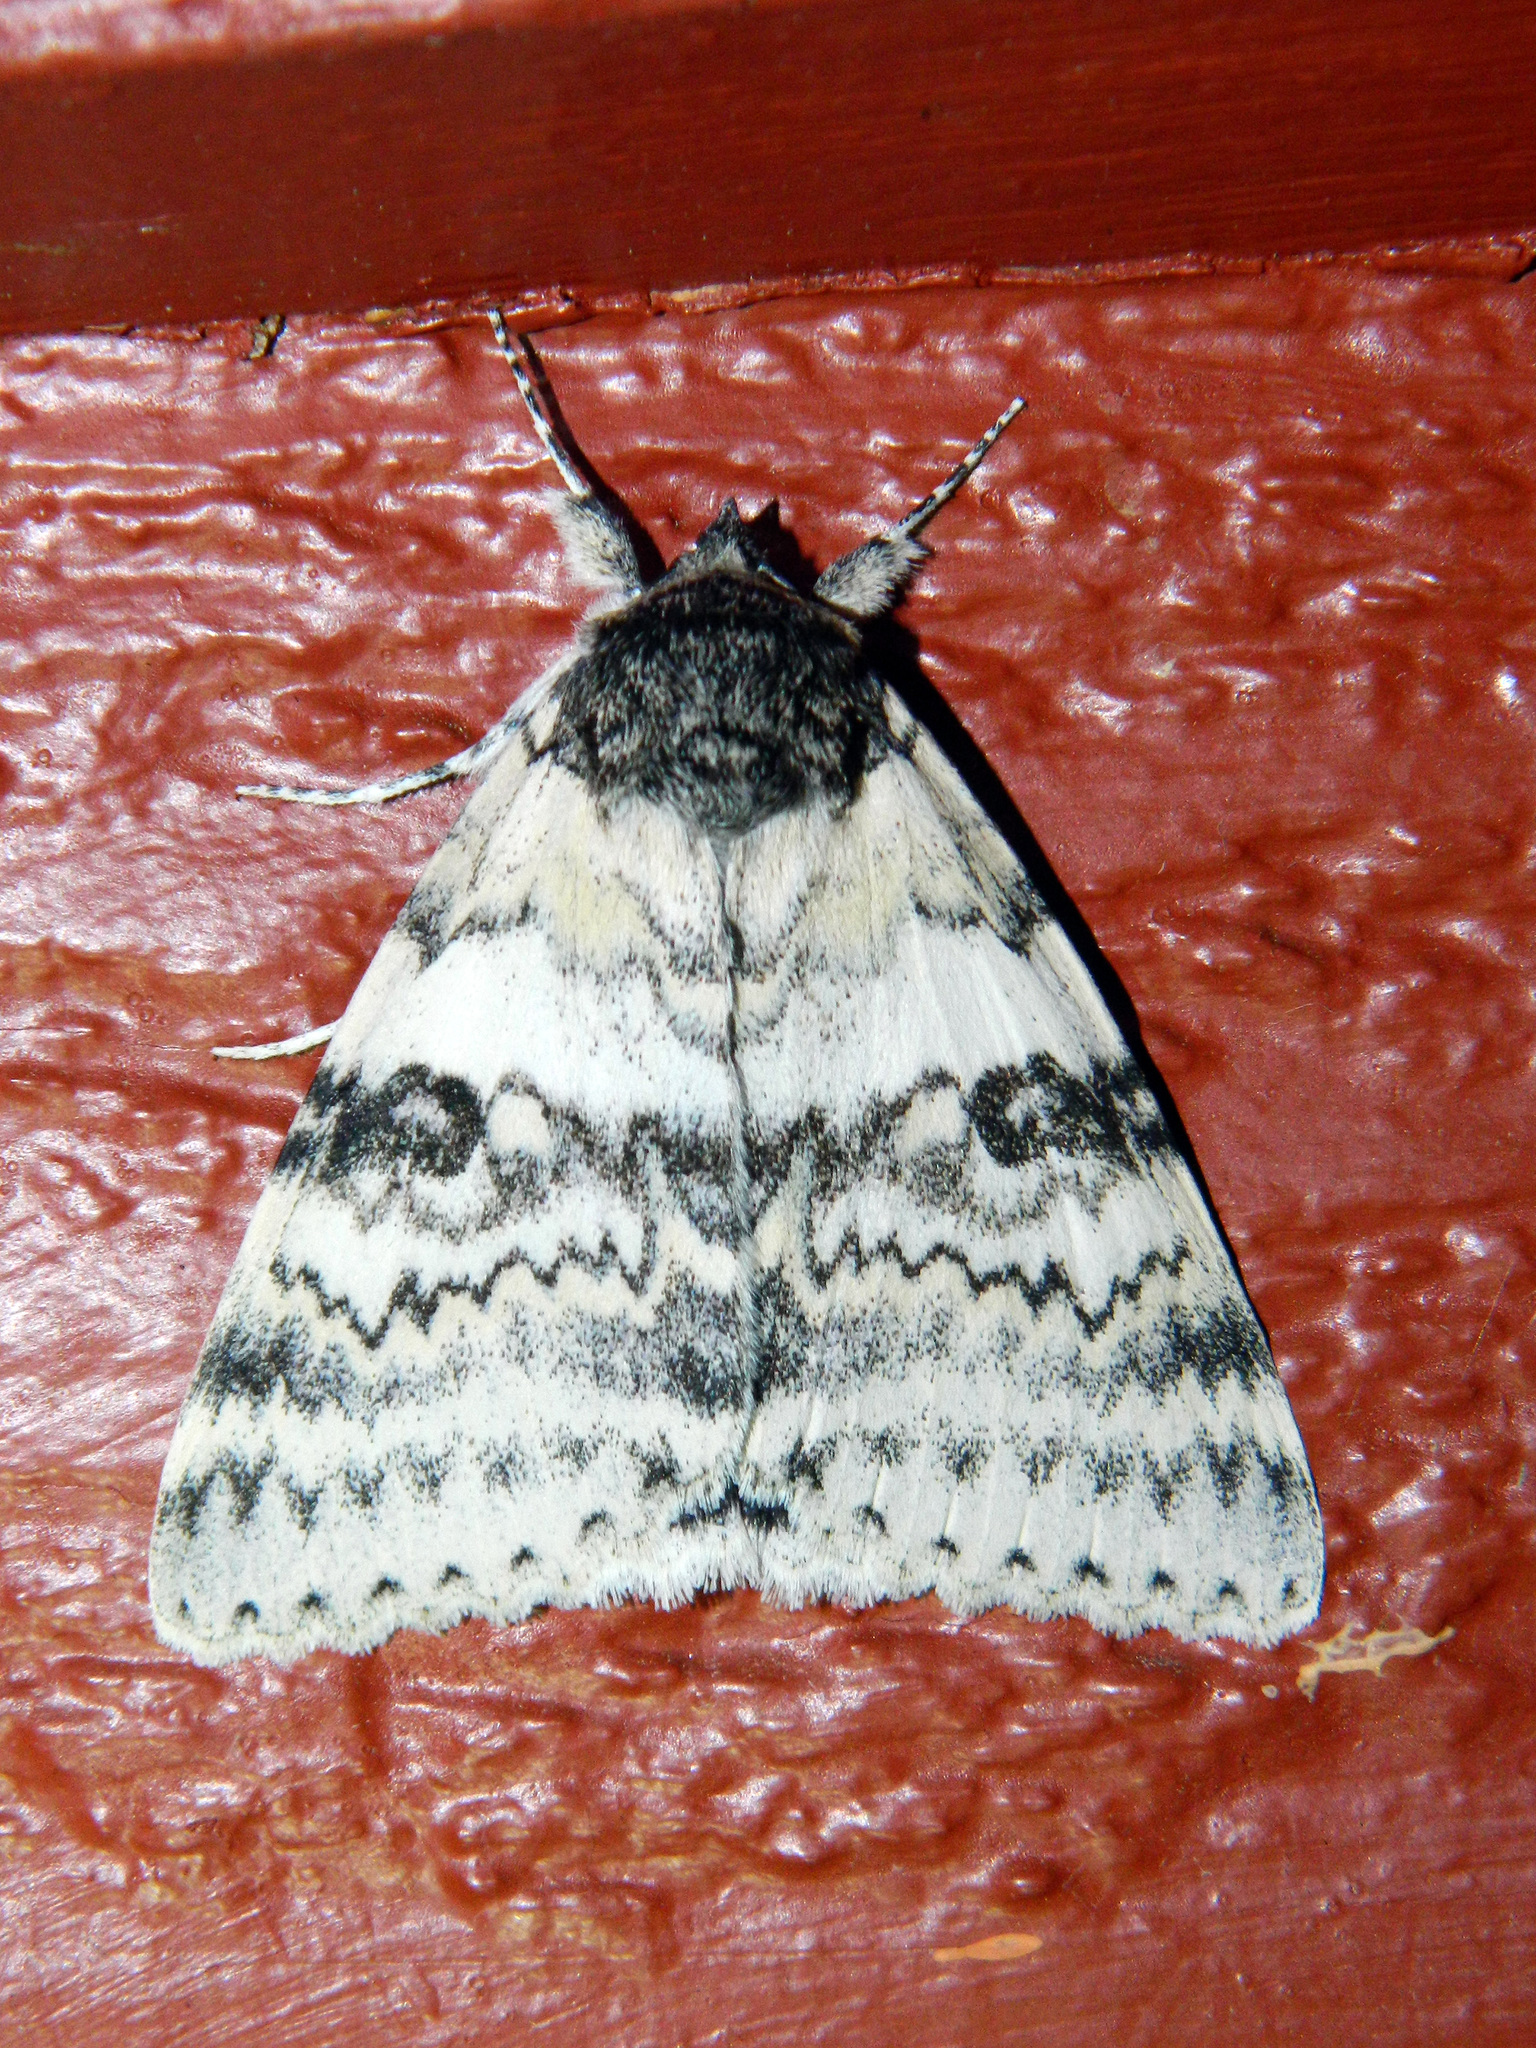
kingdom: Animalia
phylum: Arthropoda
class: Insecta
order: Lepidoptera
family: Erebidae
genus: Catocala
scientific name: Catocala relicta
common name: White underwing
